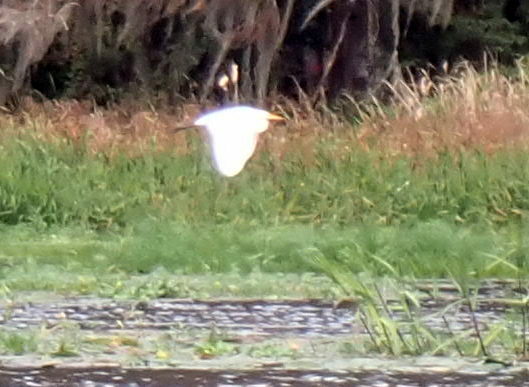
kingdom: Animalia
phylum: Chordata
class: Aves
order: Pelecaniformes
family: Ardeidae
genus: Ardea
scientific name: Ardea alba
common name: Great egret
